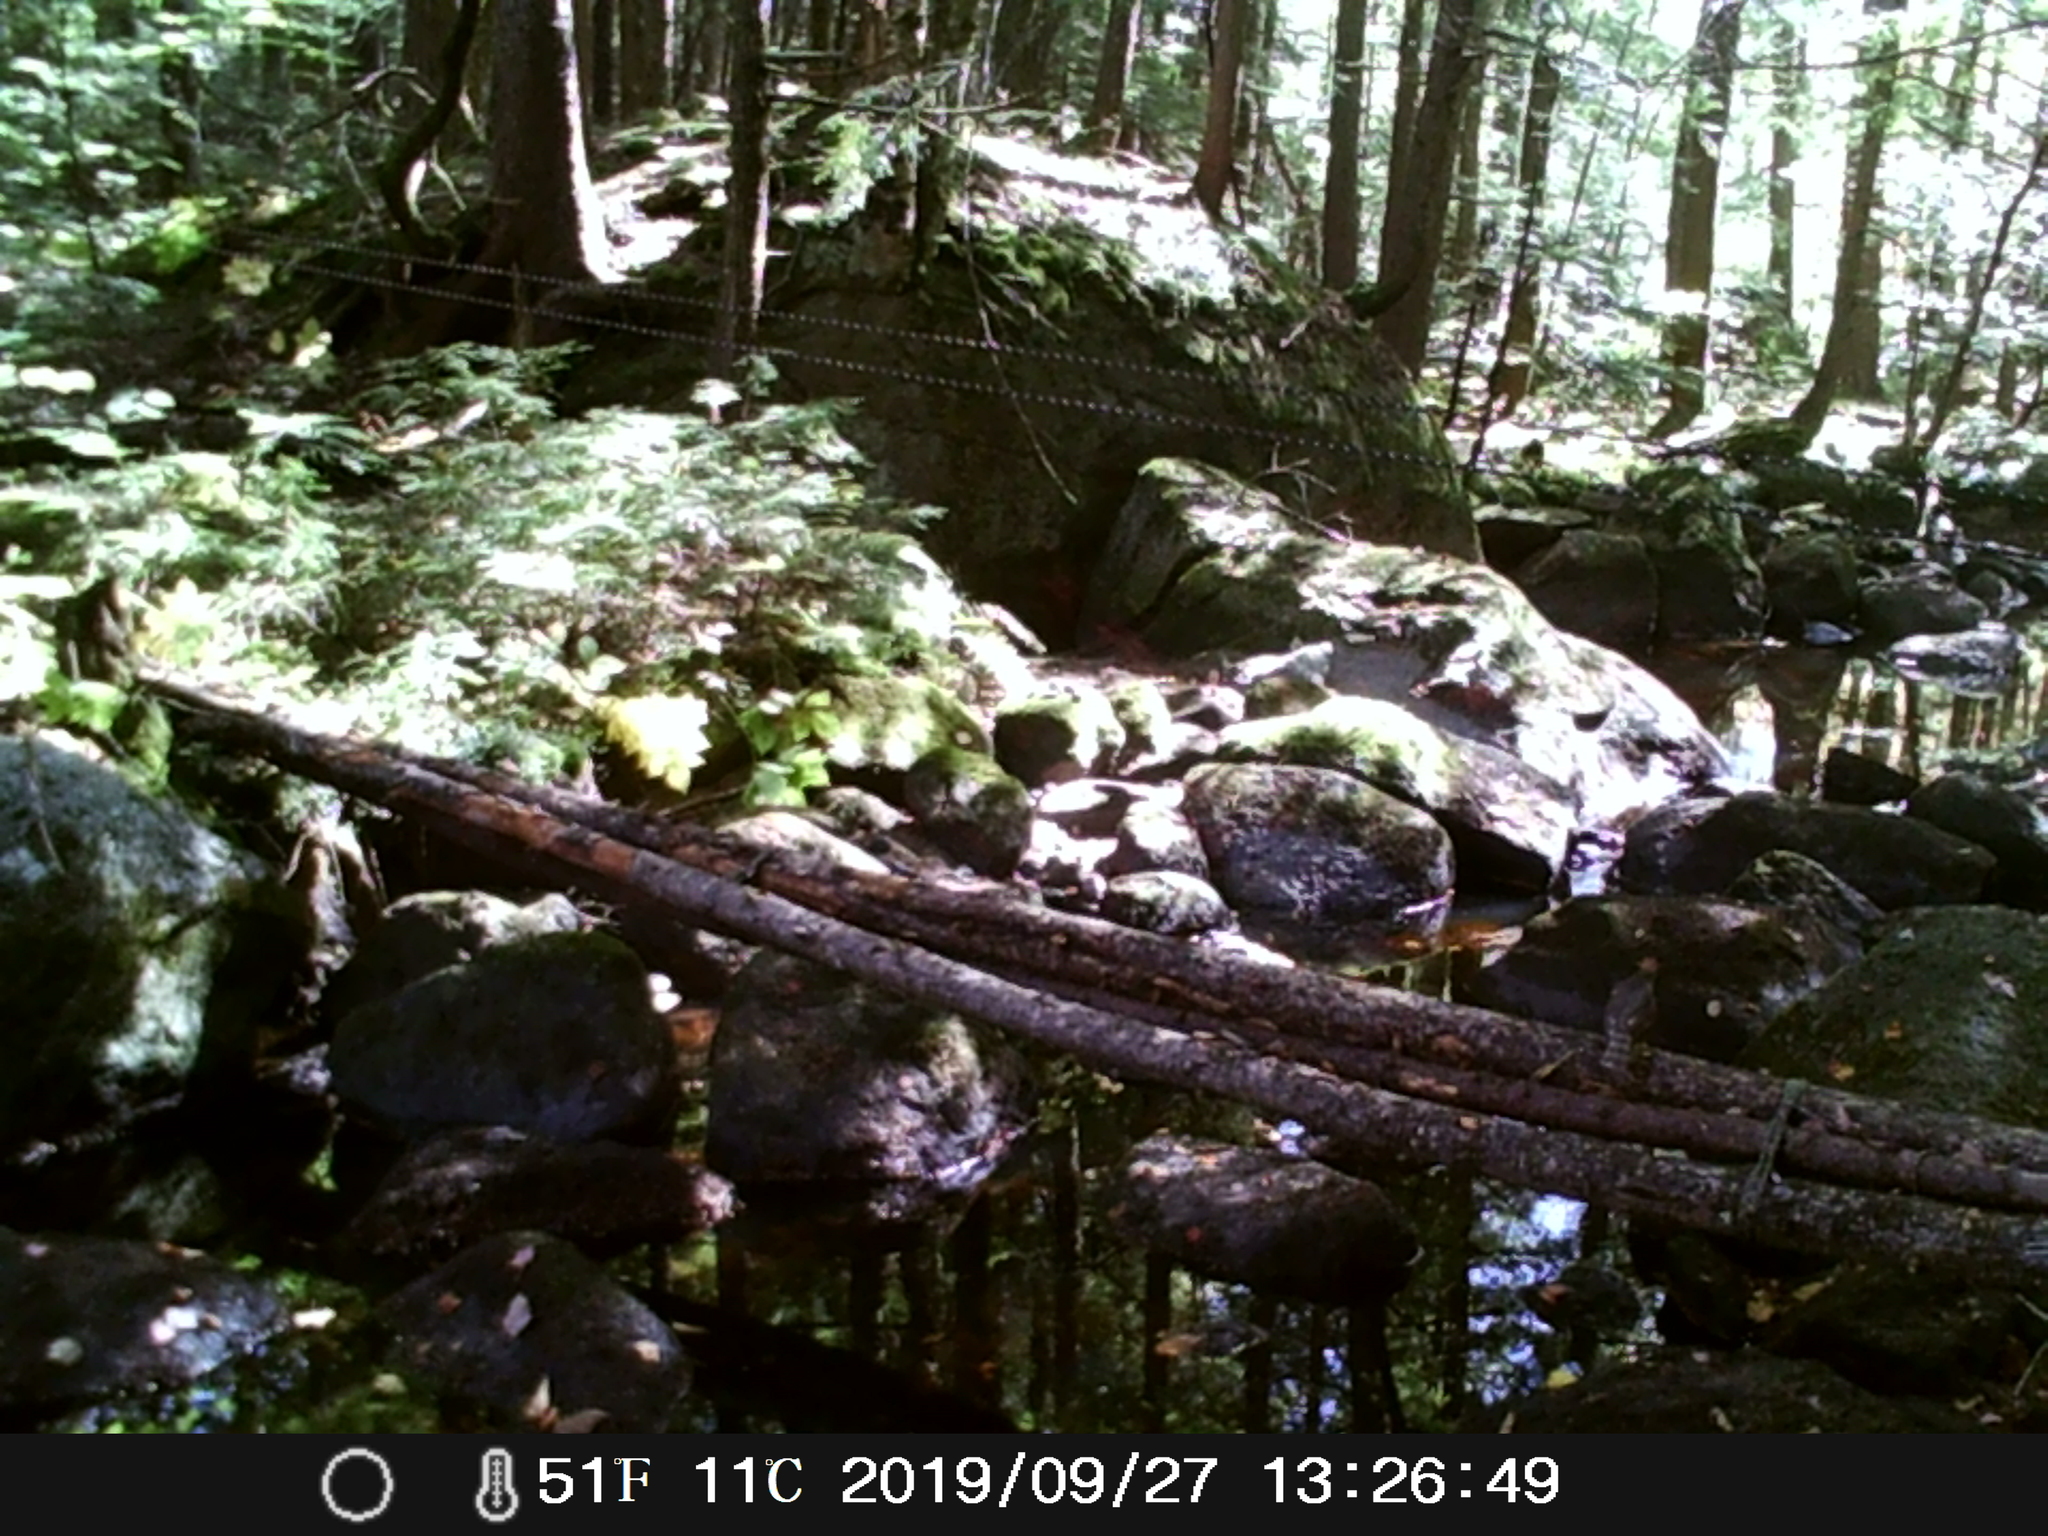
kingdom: Animalia
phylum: Chordata
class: Aves
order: Accipitriformes
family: Accipitridae
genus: Accipiter
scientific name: Accipiter
